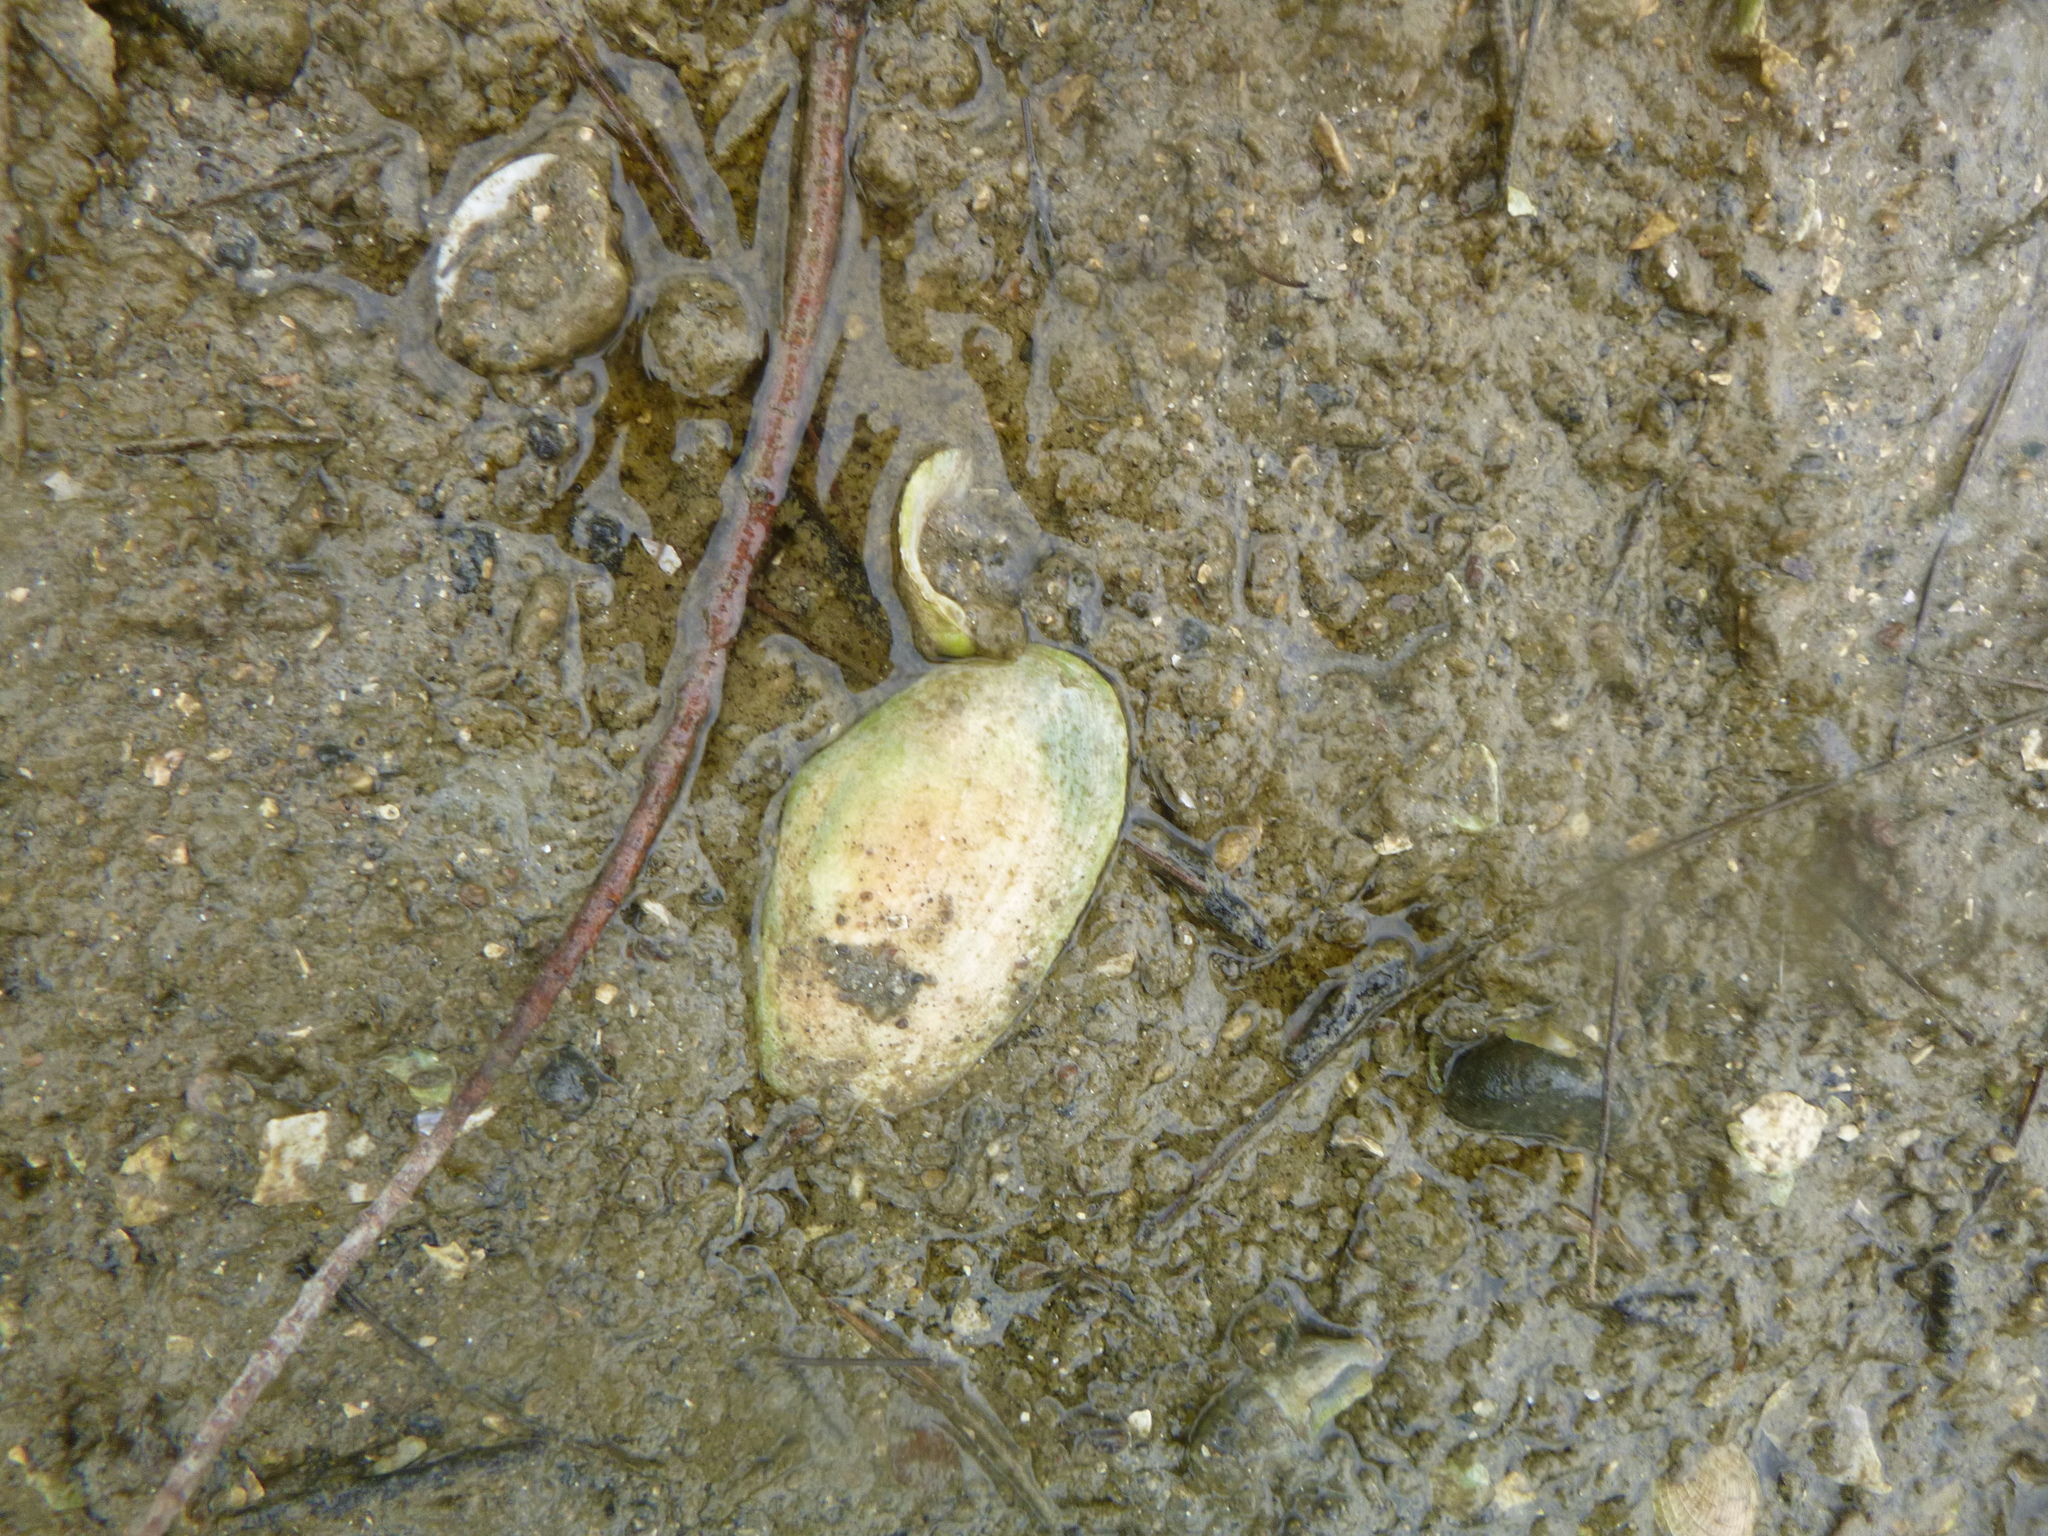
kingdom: Animalia
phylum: Mollusca
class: Bivalvia
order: Venerida
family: Mesodesmatidae
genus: Paphies
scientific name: Paphies australis
